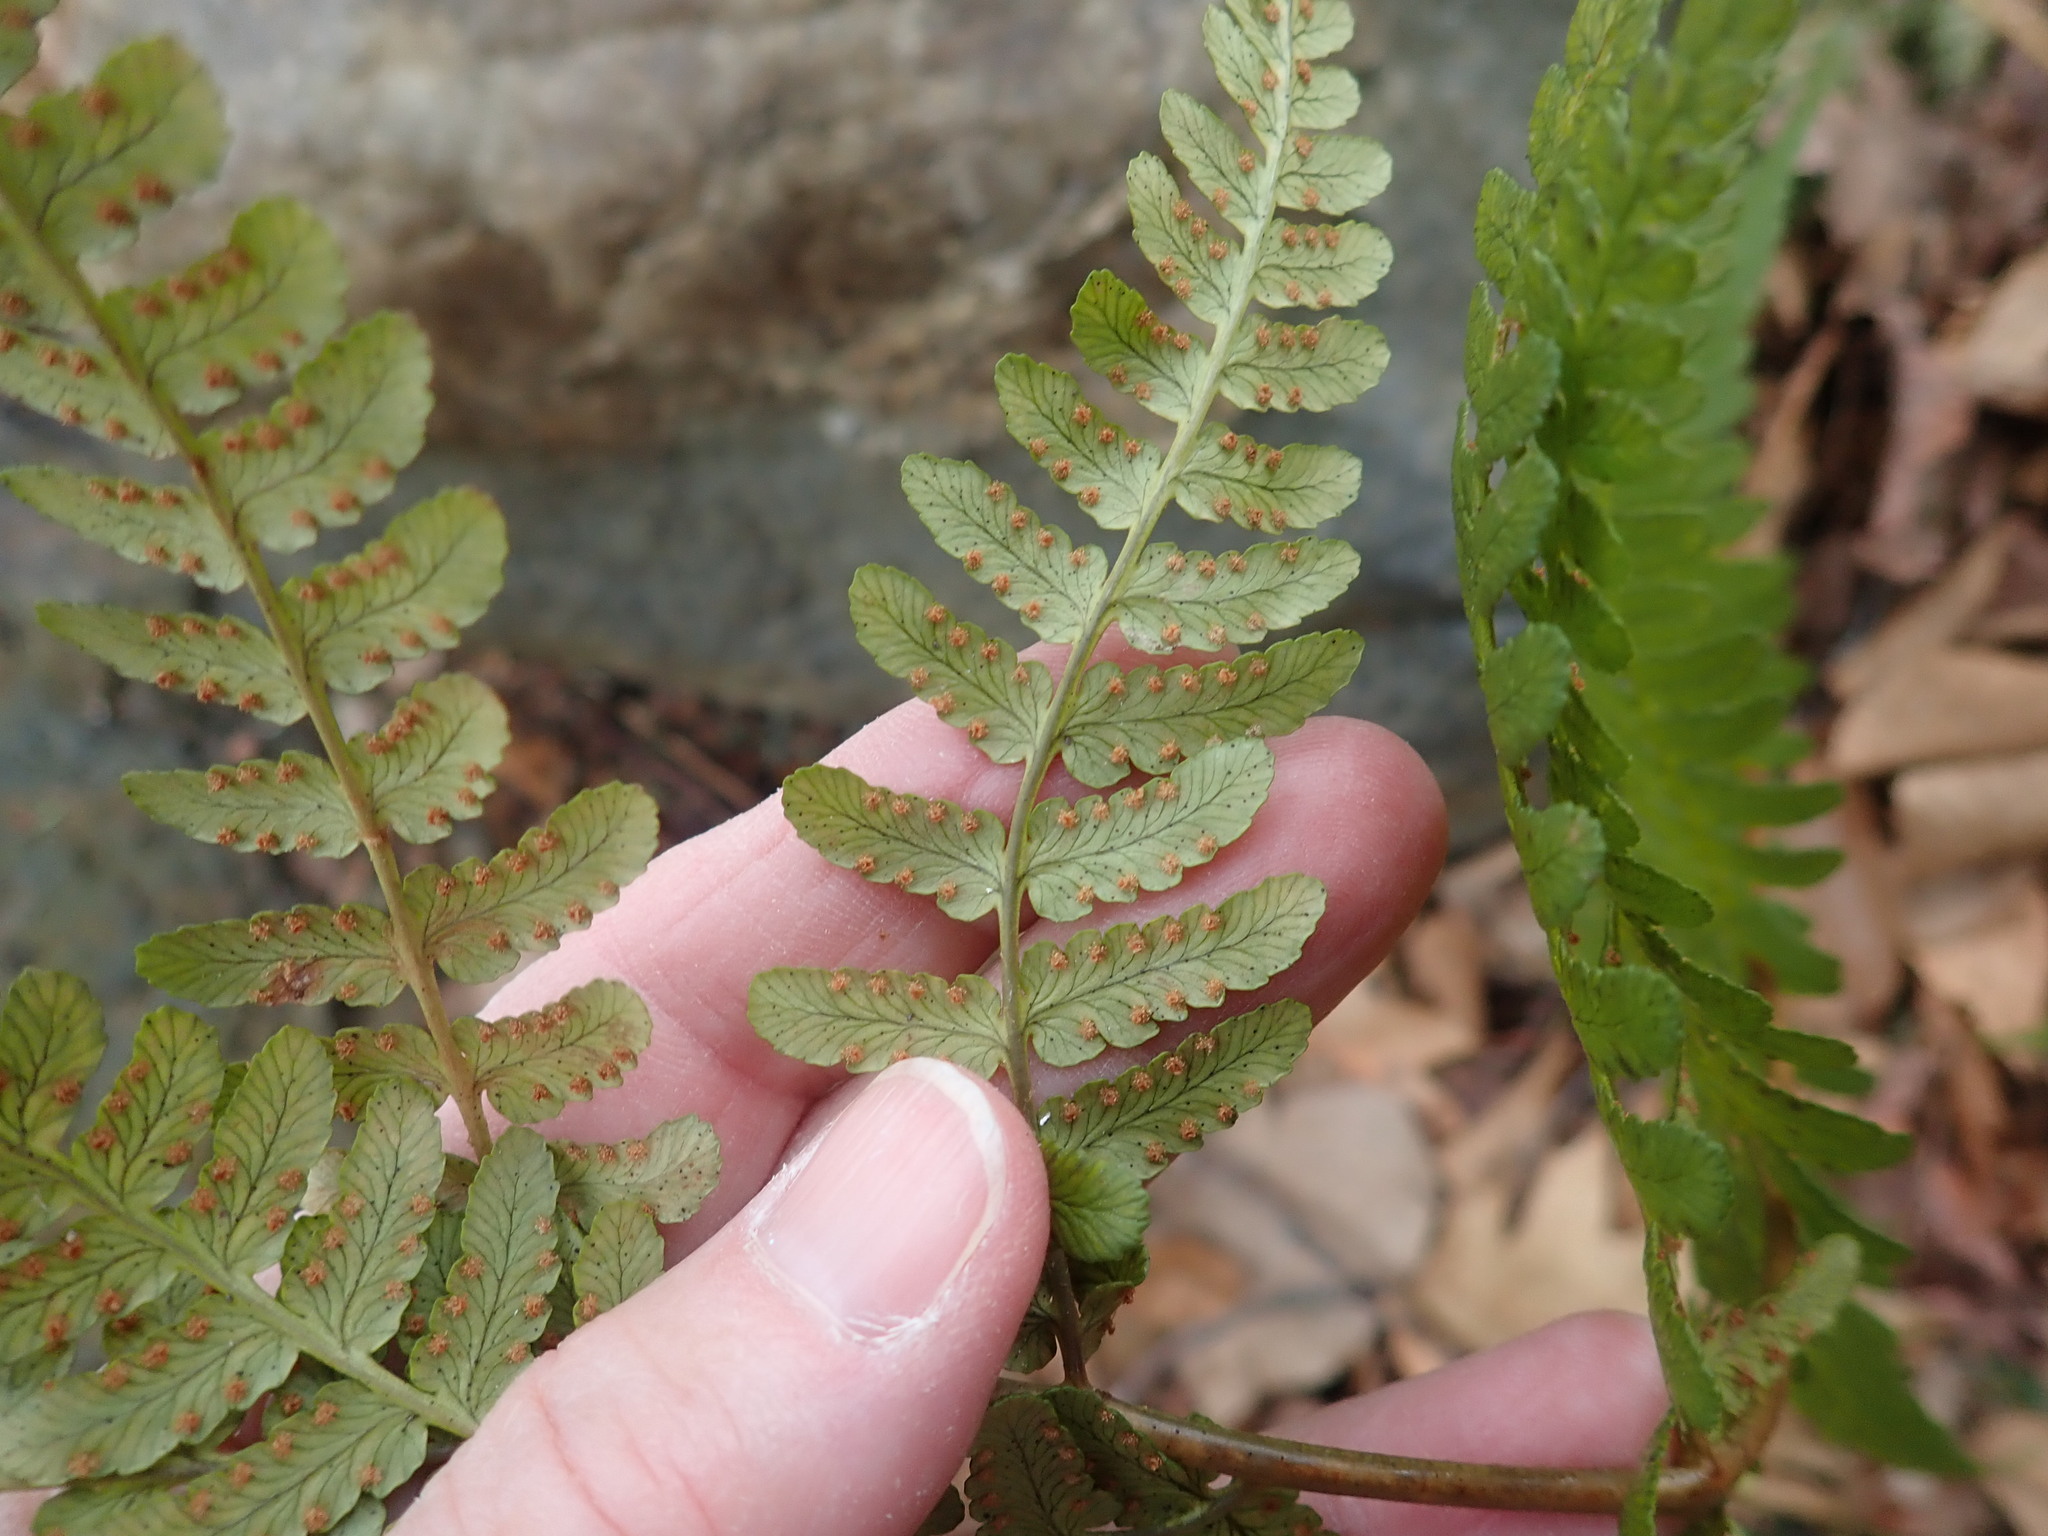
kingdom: Plantae
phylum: Tracheophyta
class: Polypodiopsida
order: Polypodiales
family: Dryopteridaceae
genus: Dryopteris
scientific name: Dryopteris marginalis
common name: Marginal wood fern
